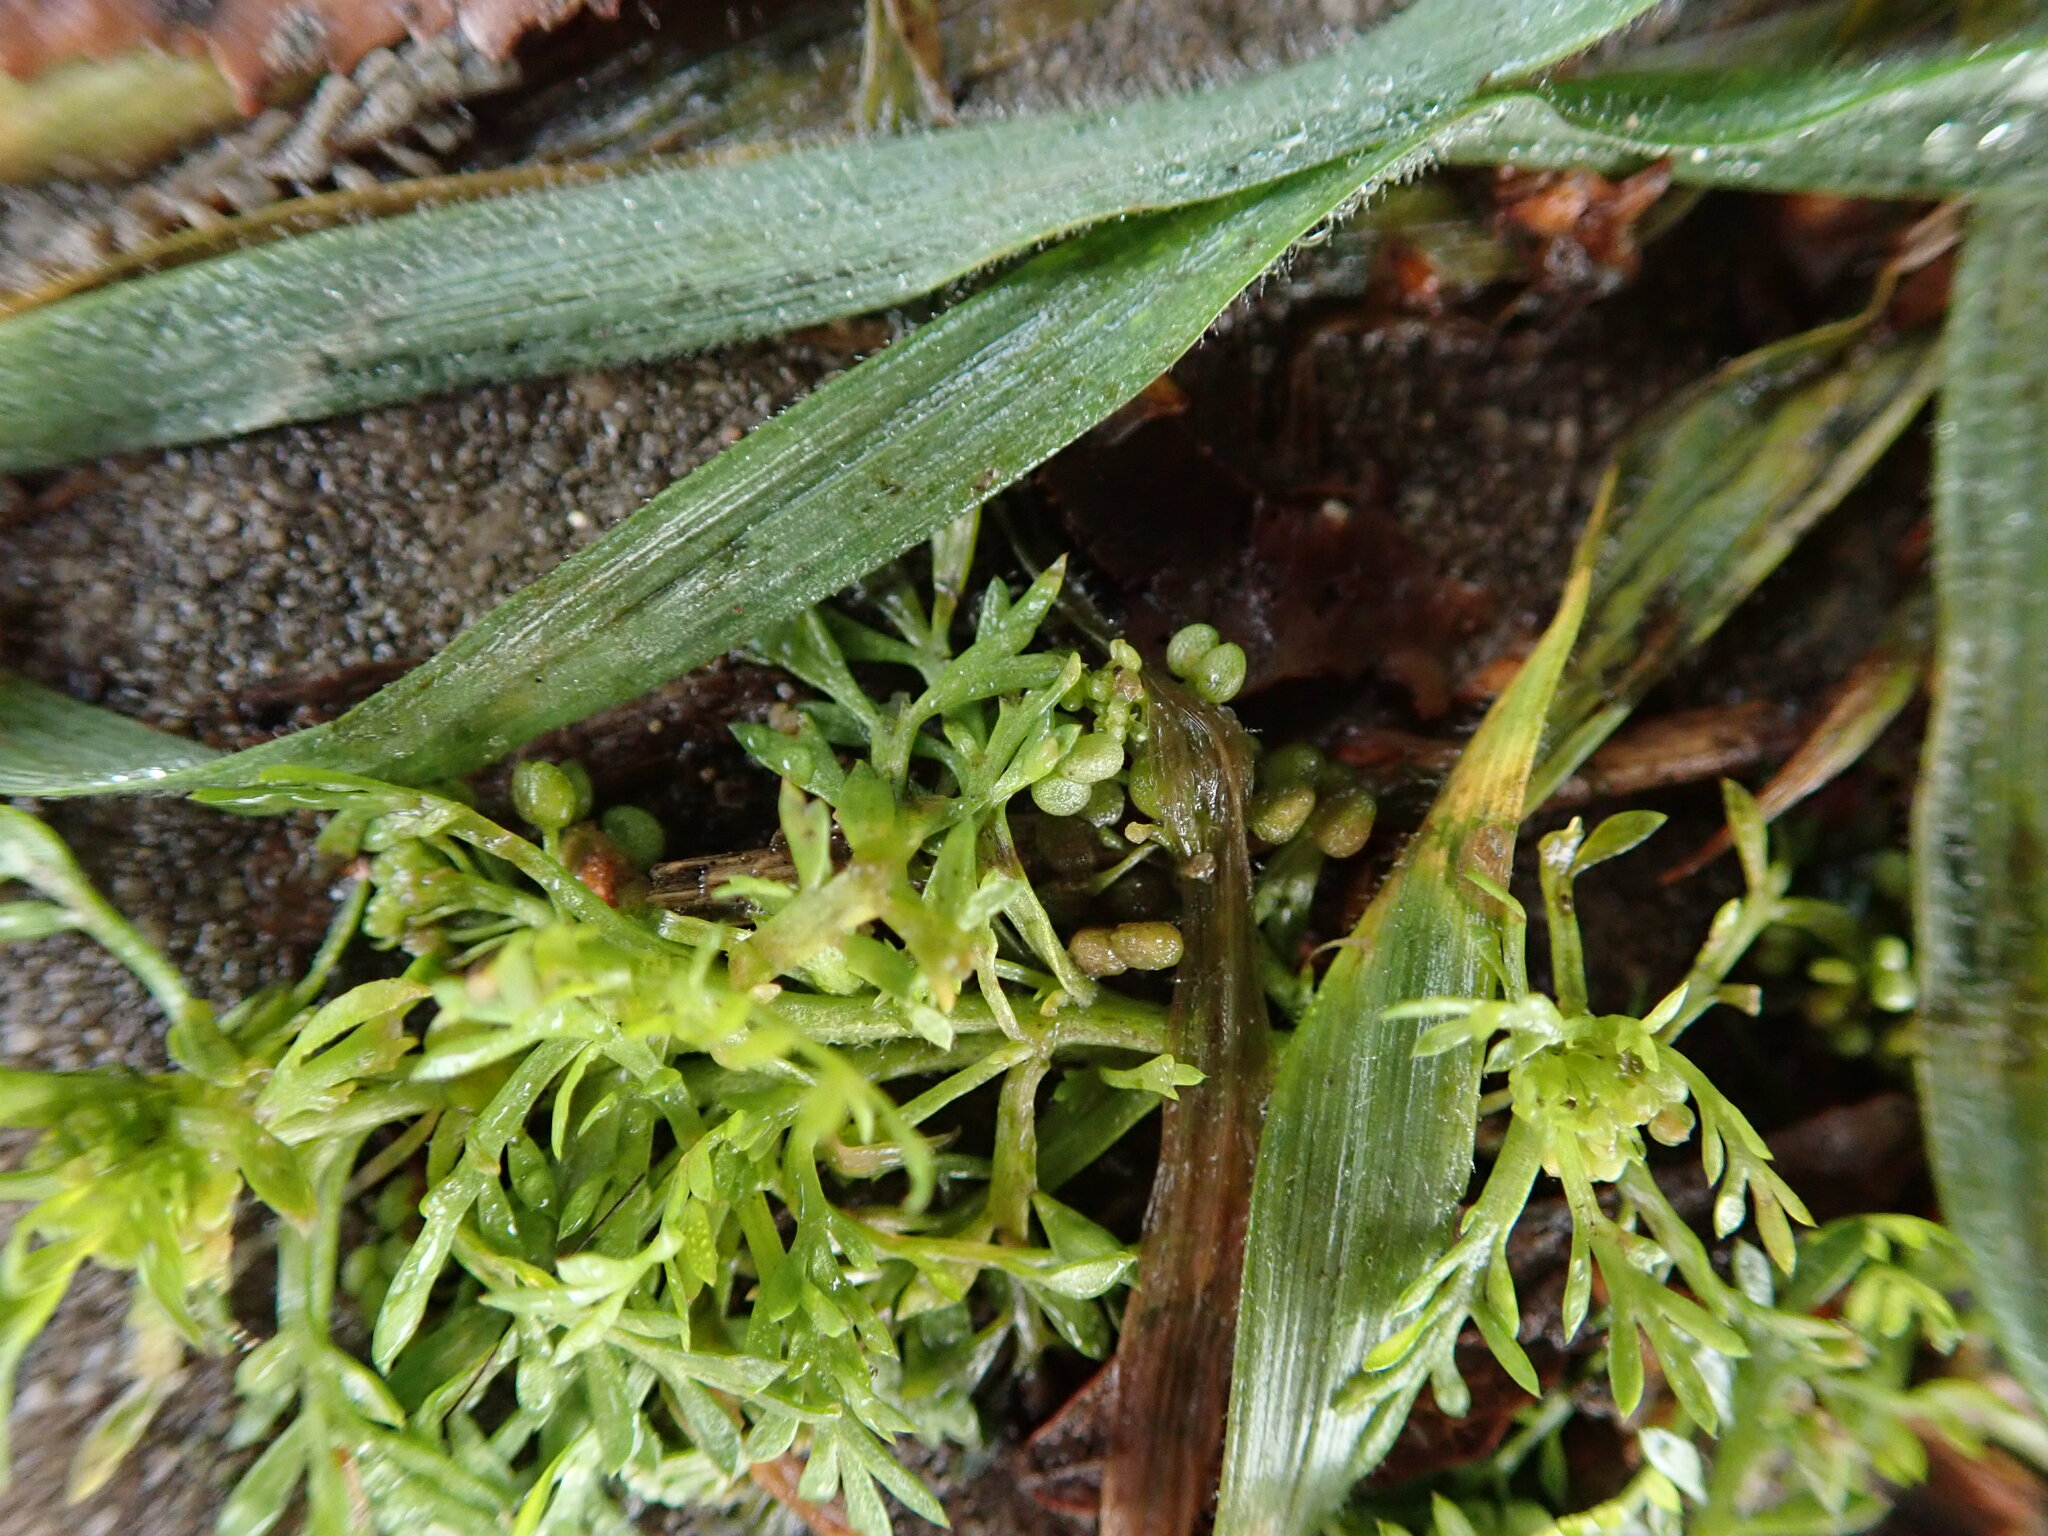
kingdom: Plantae
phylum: Tracheophyta
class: Magnoliopsida
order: Brassicales
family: Brassicaceae
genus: Lepidium
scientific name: Lepidium didymum
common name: Lesser swinecress
